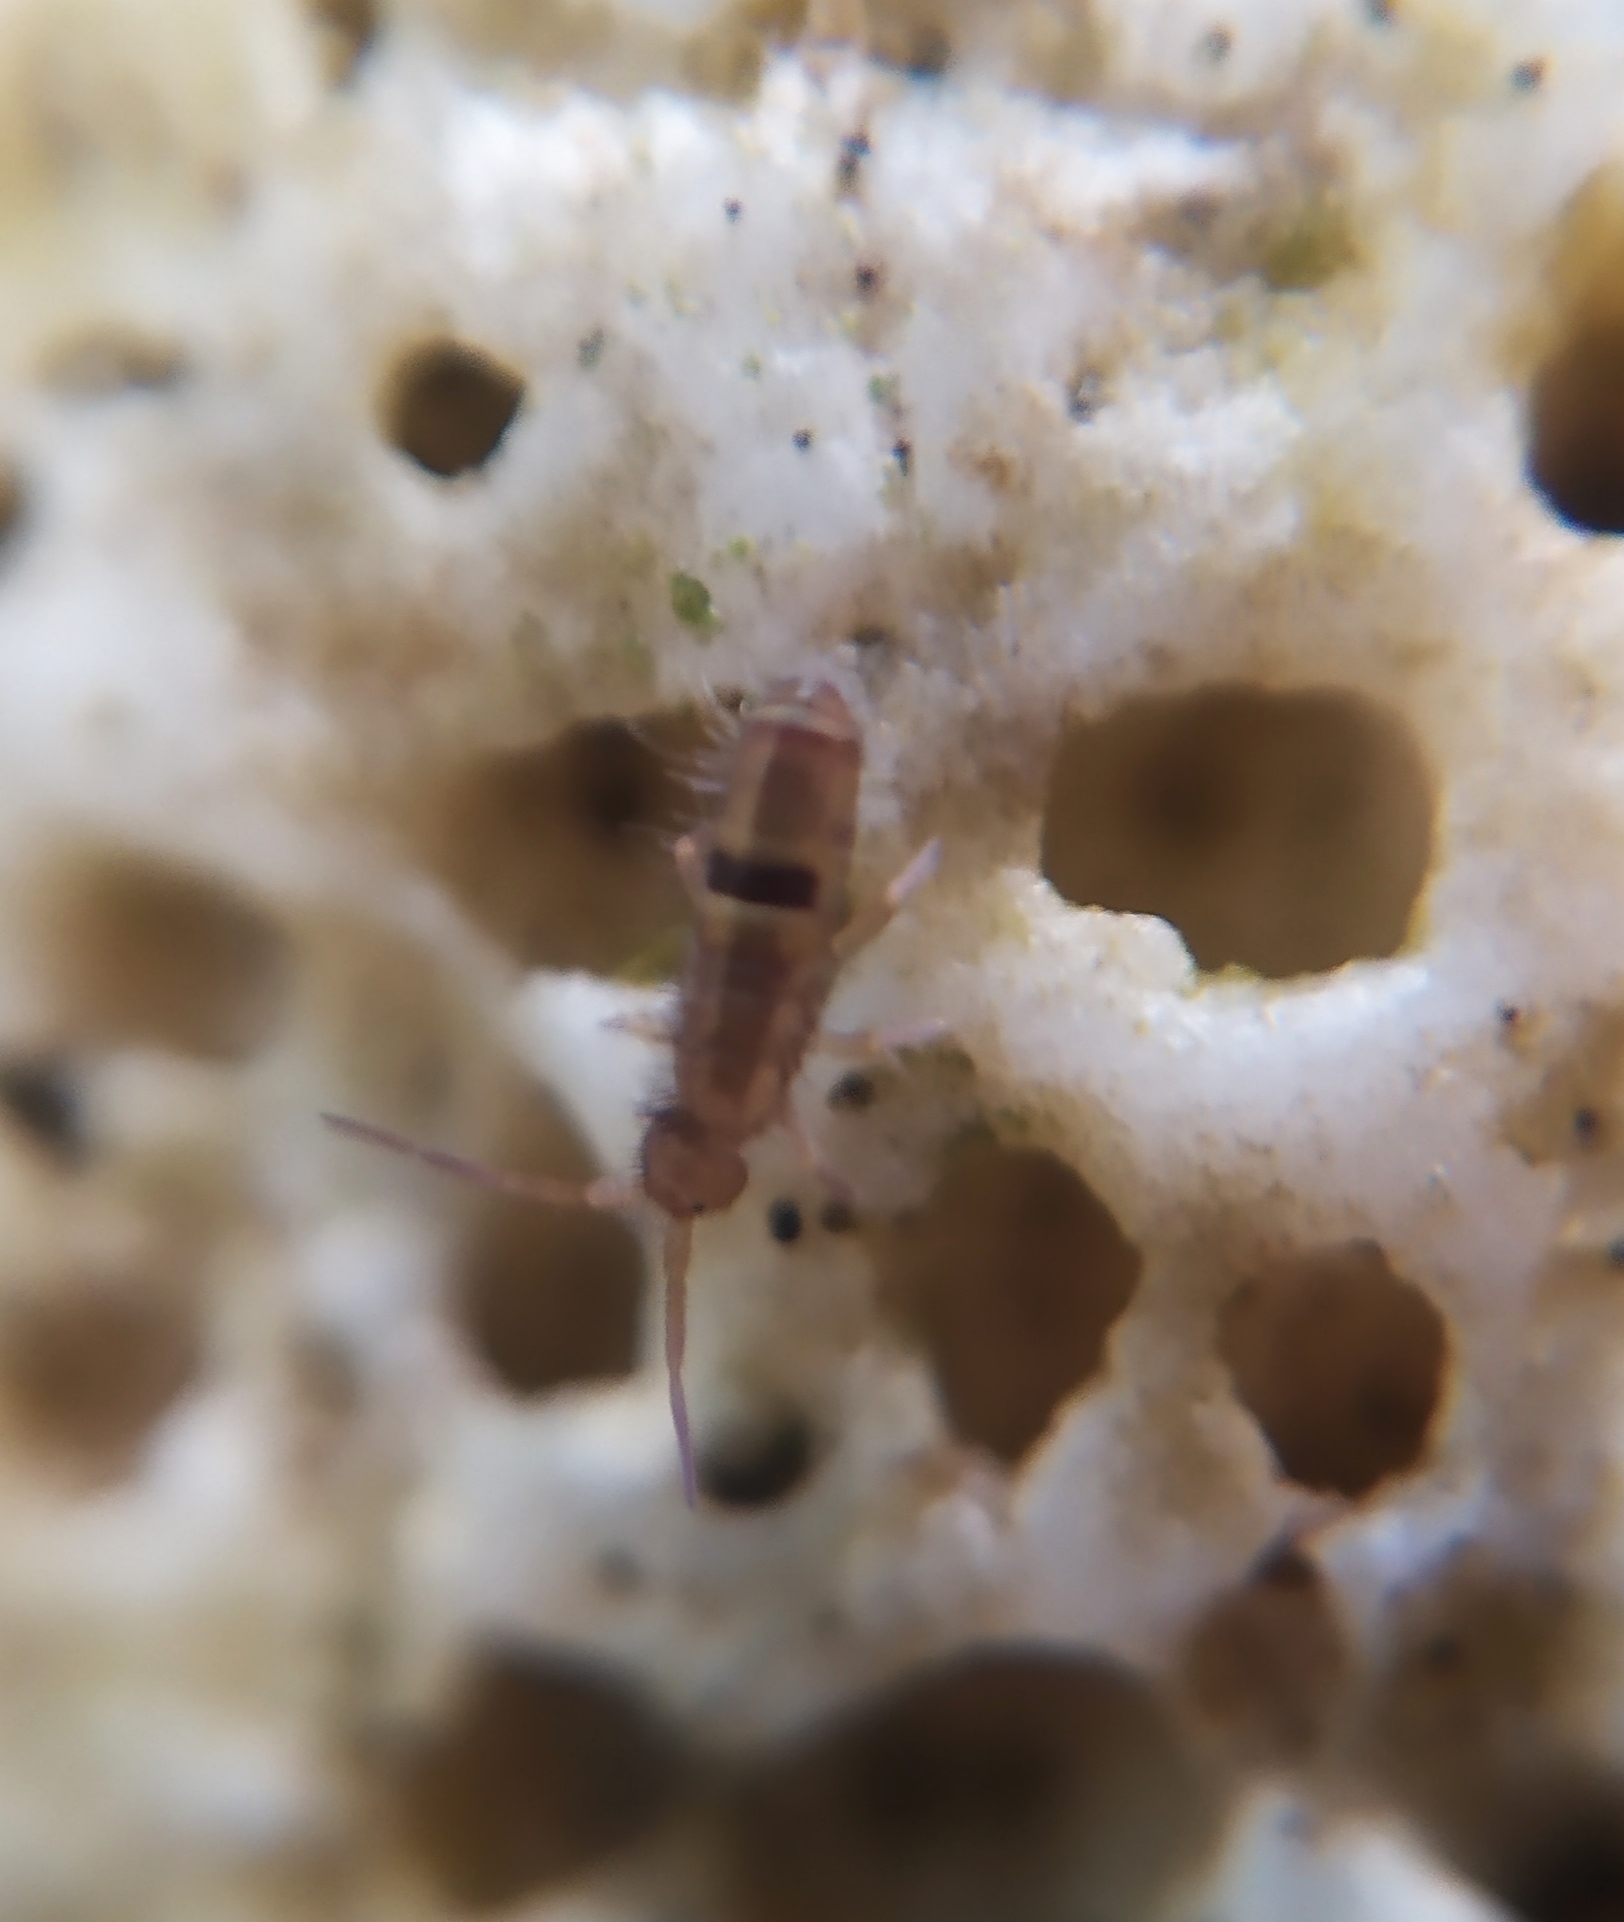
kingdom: Animalia
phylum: Arthropoda
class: Collembola
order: Entomobryomorpha
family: Orchesellidae
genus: Orchesella
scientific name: Orchesella cincta
